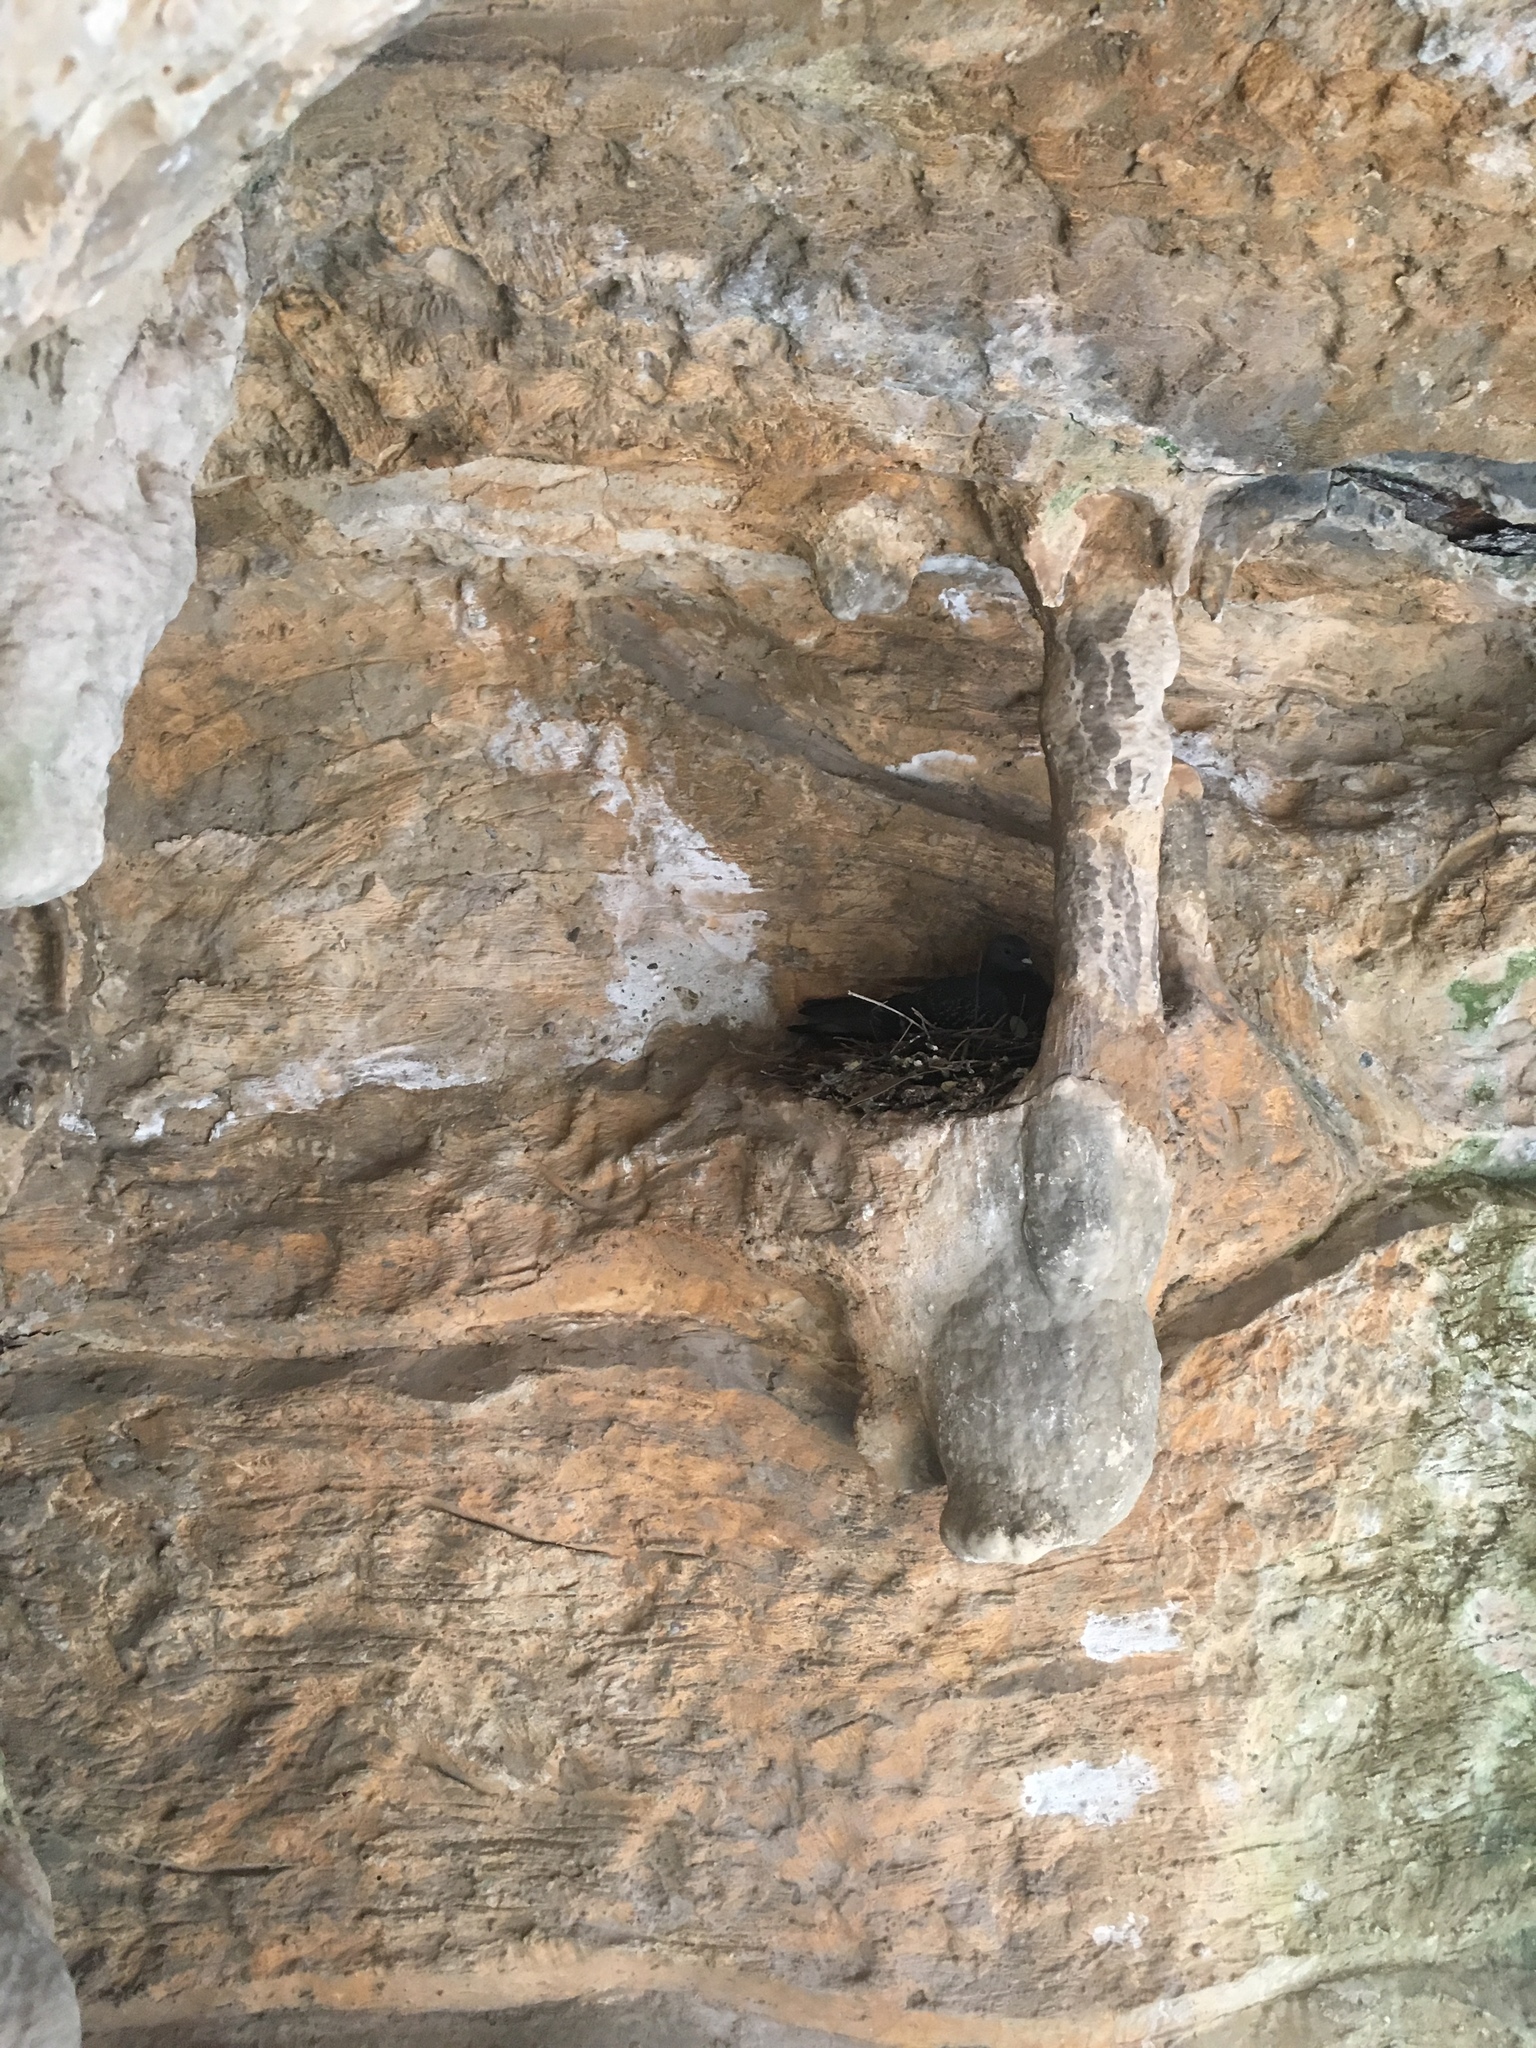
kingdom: Animalia
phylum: Chordata
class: Aves
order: Columbiformes
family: Columbidae
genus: Columba
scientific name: Columba livia
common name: Rock pigeon
